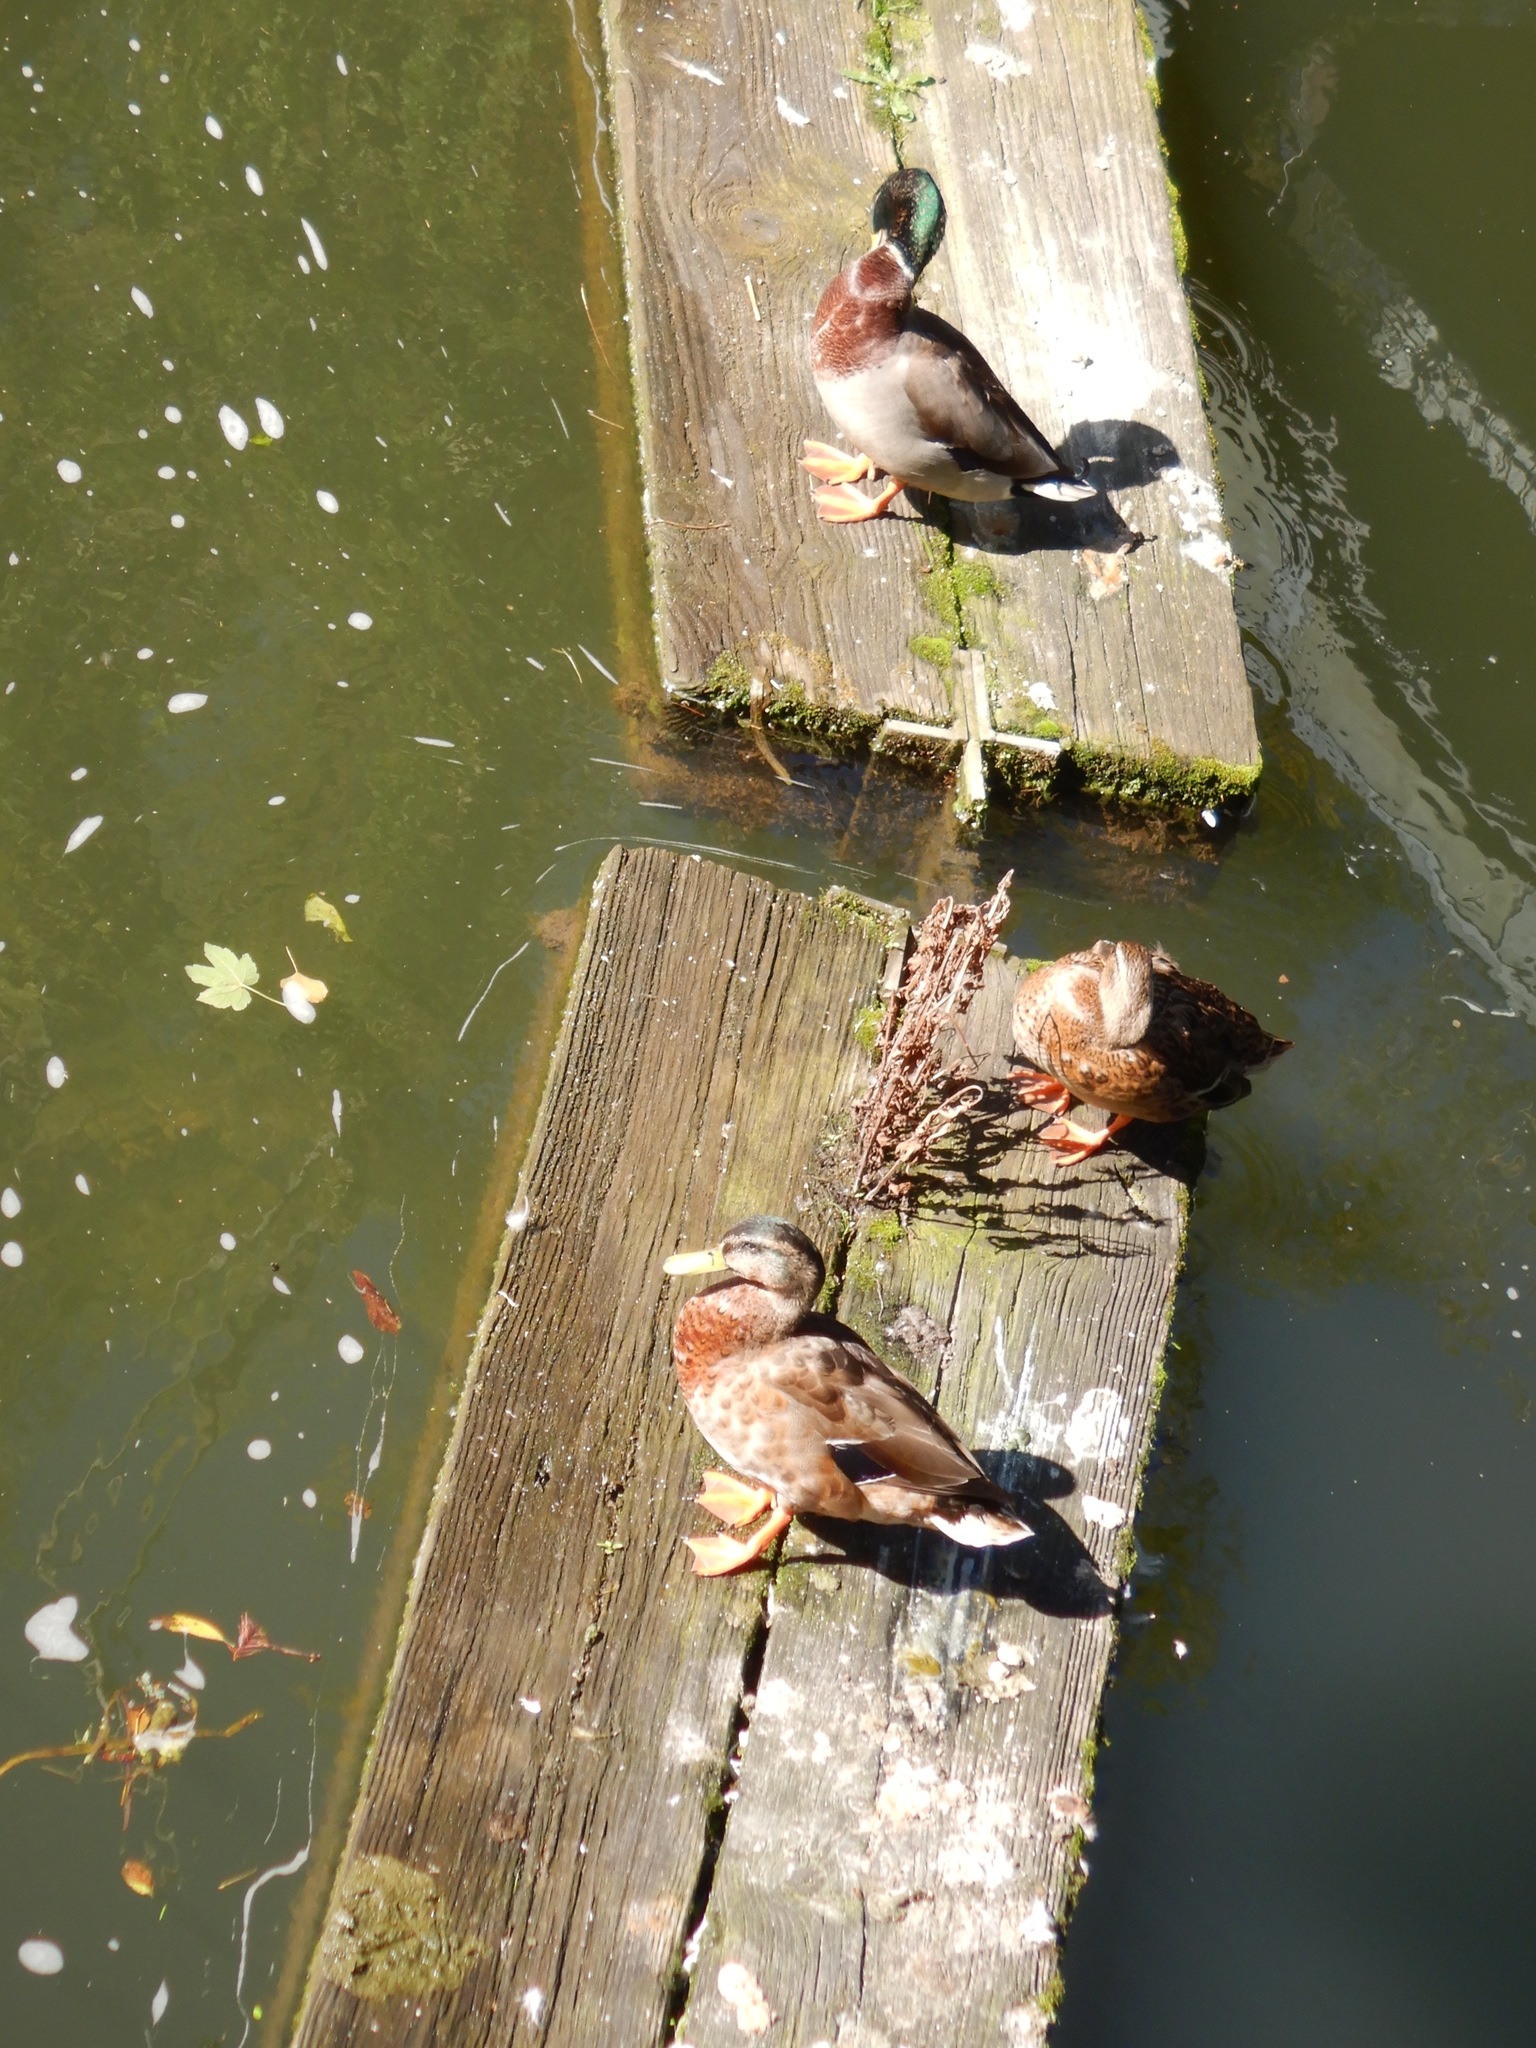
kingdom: Animalia
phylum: Chordata
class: Aves
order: Anseriformes
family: Anatidae
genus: Anas
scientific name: Anas platyrhynchos
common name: Mallard
